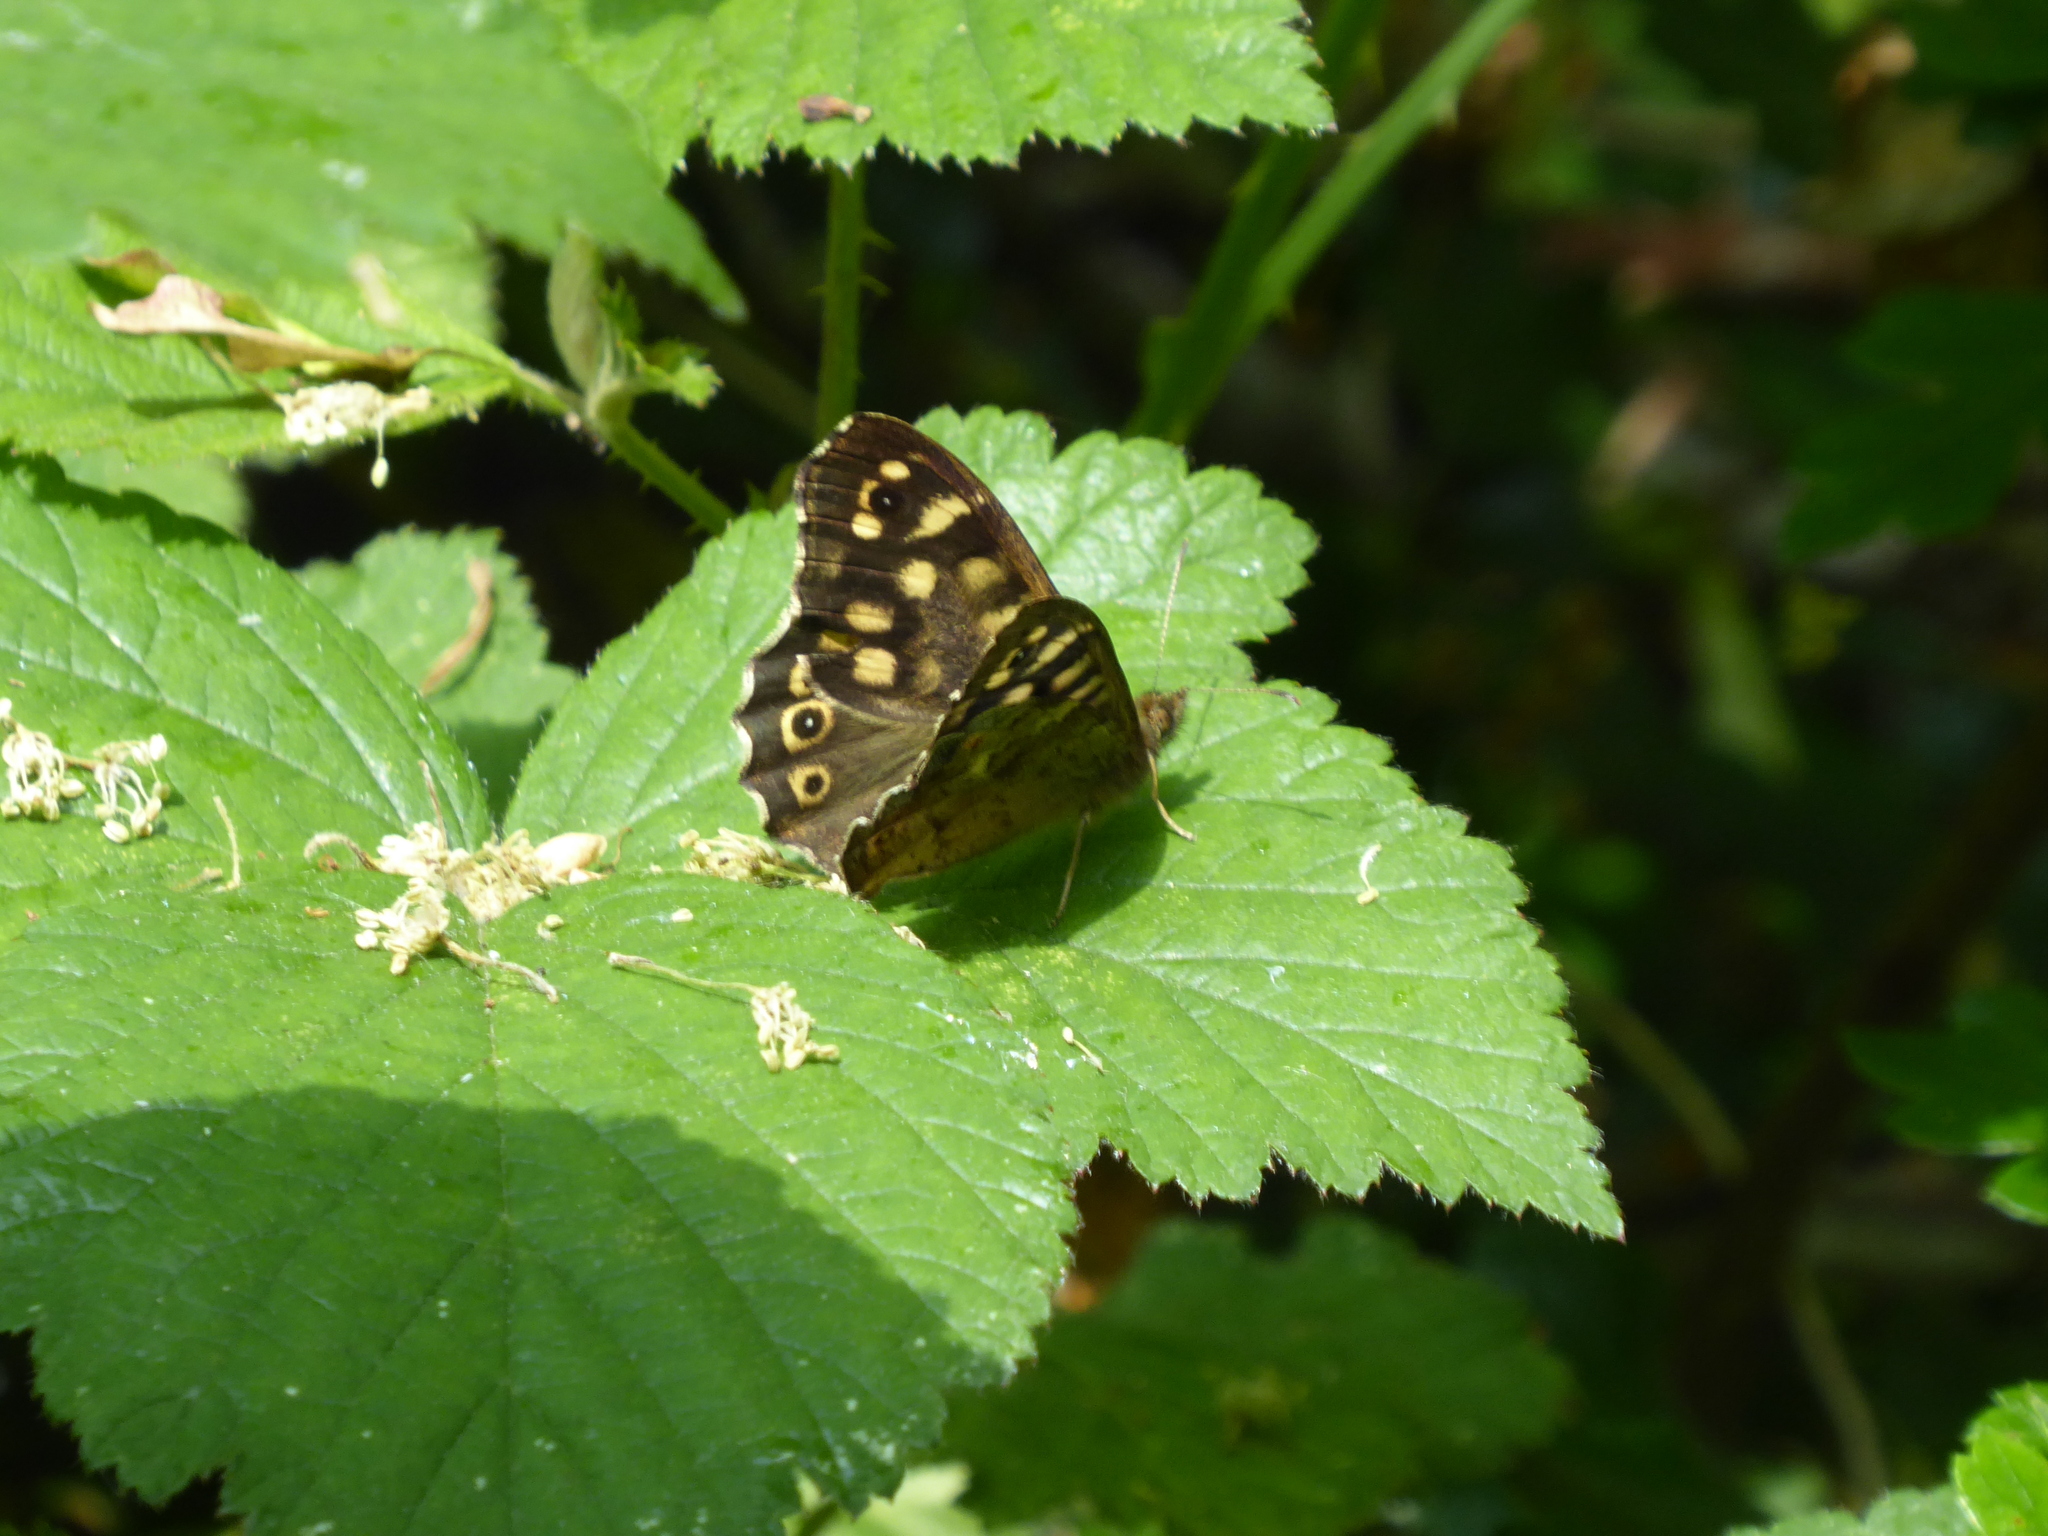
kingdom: Animalia
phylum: Arthropoda
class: Insecta
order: Lepidoptera
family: Nymphalidae
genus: Pararge
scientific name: Pararge aegeria
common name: Speckled wood
